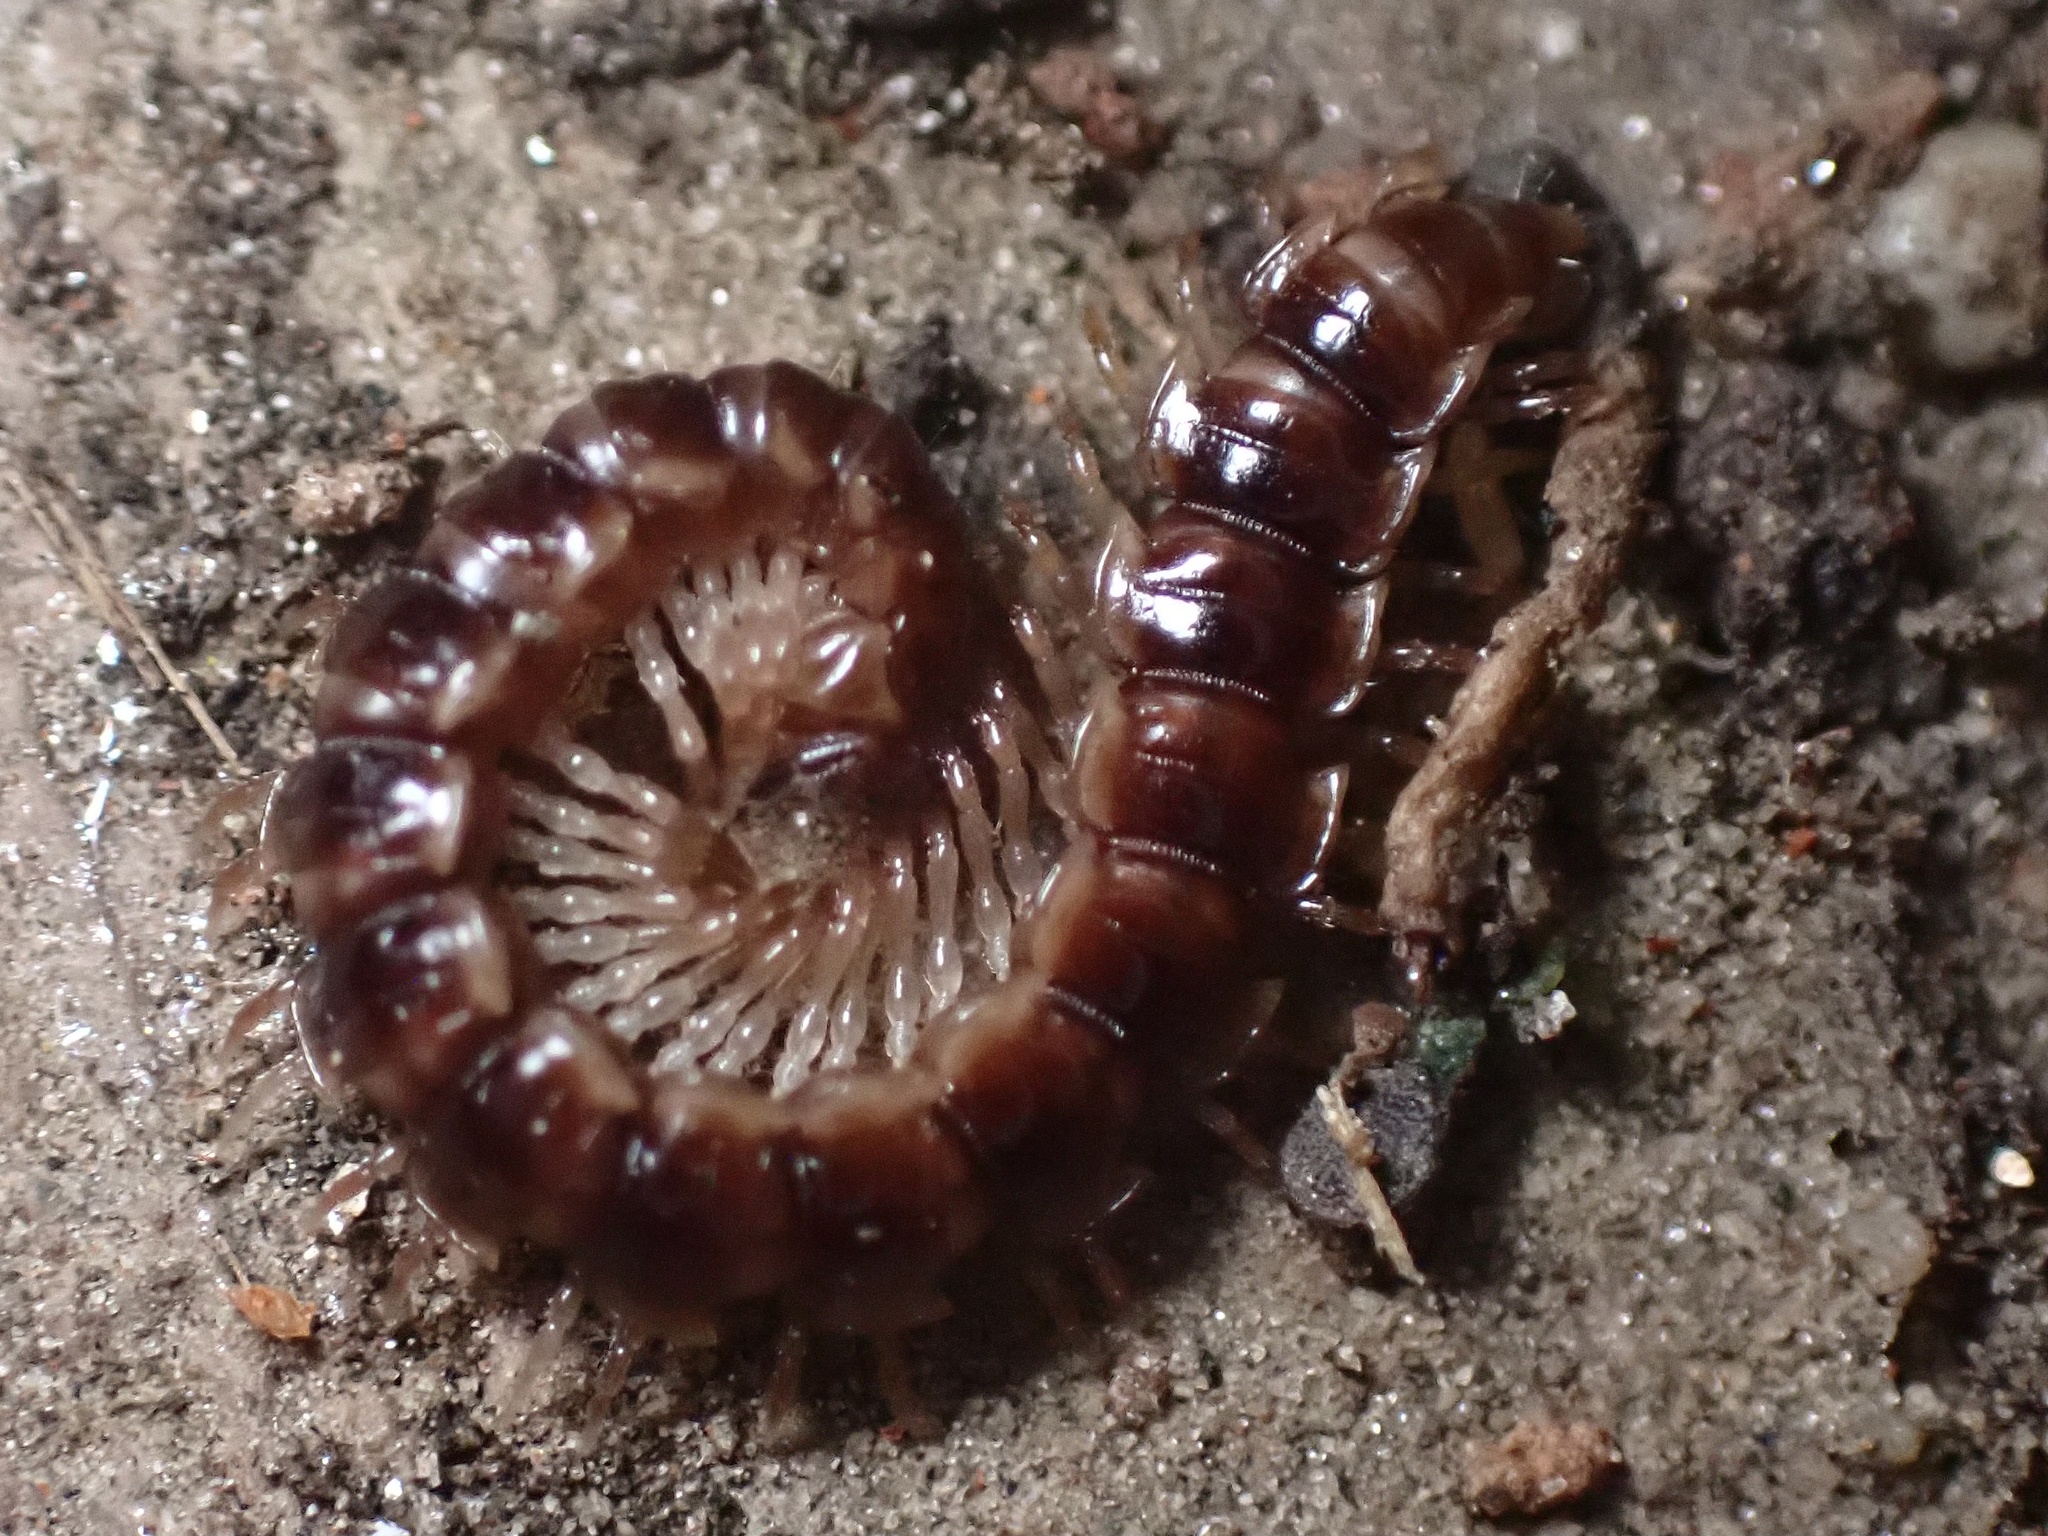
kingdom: Animalia
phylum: Arthropoda
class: Diplopoda
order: Polydesmida
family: Paradoxosomatidae
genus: Oxidus
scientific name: Oxidus gracilis
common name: Greenhouse millipede
